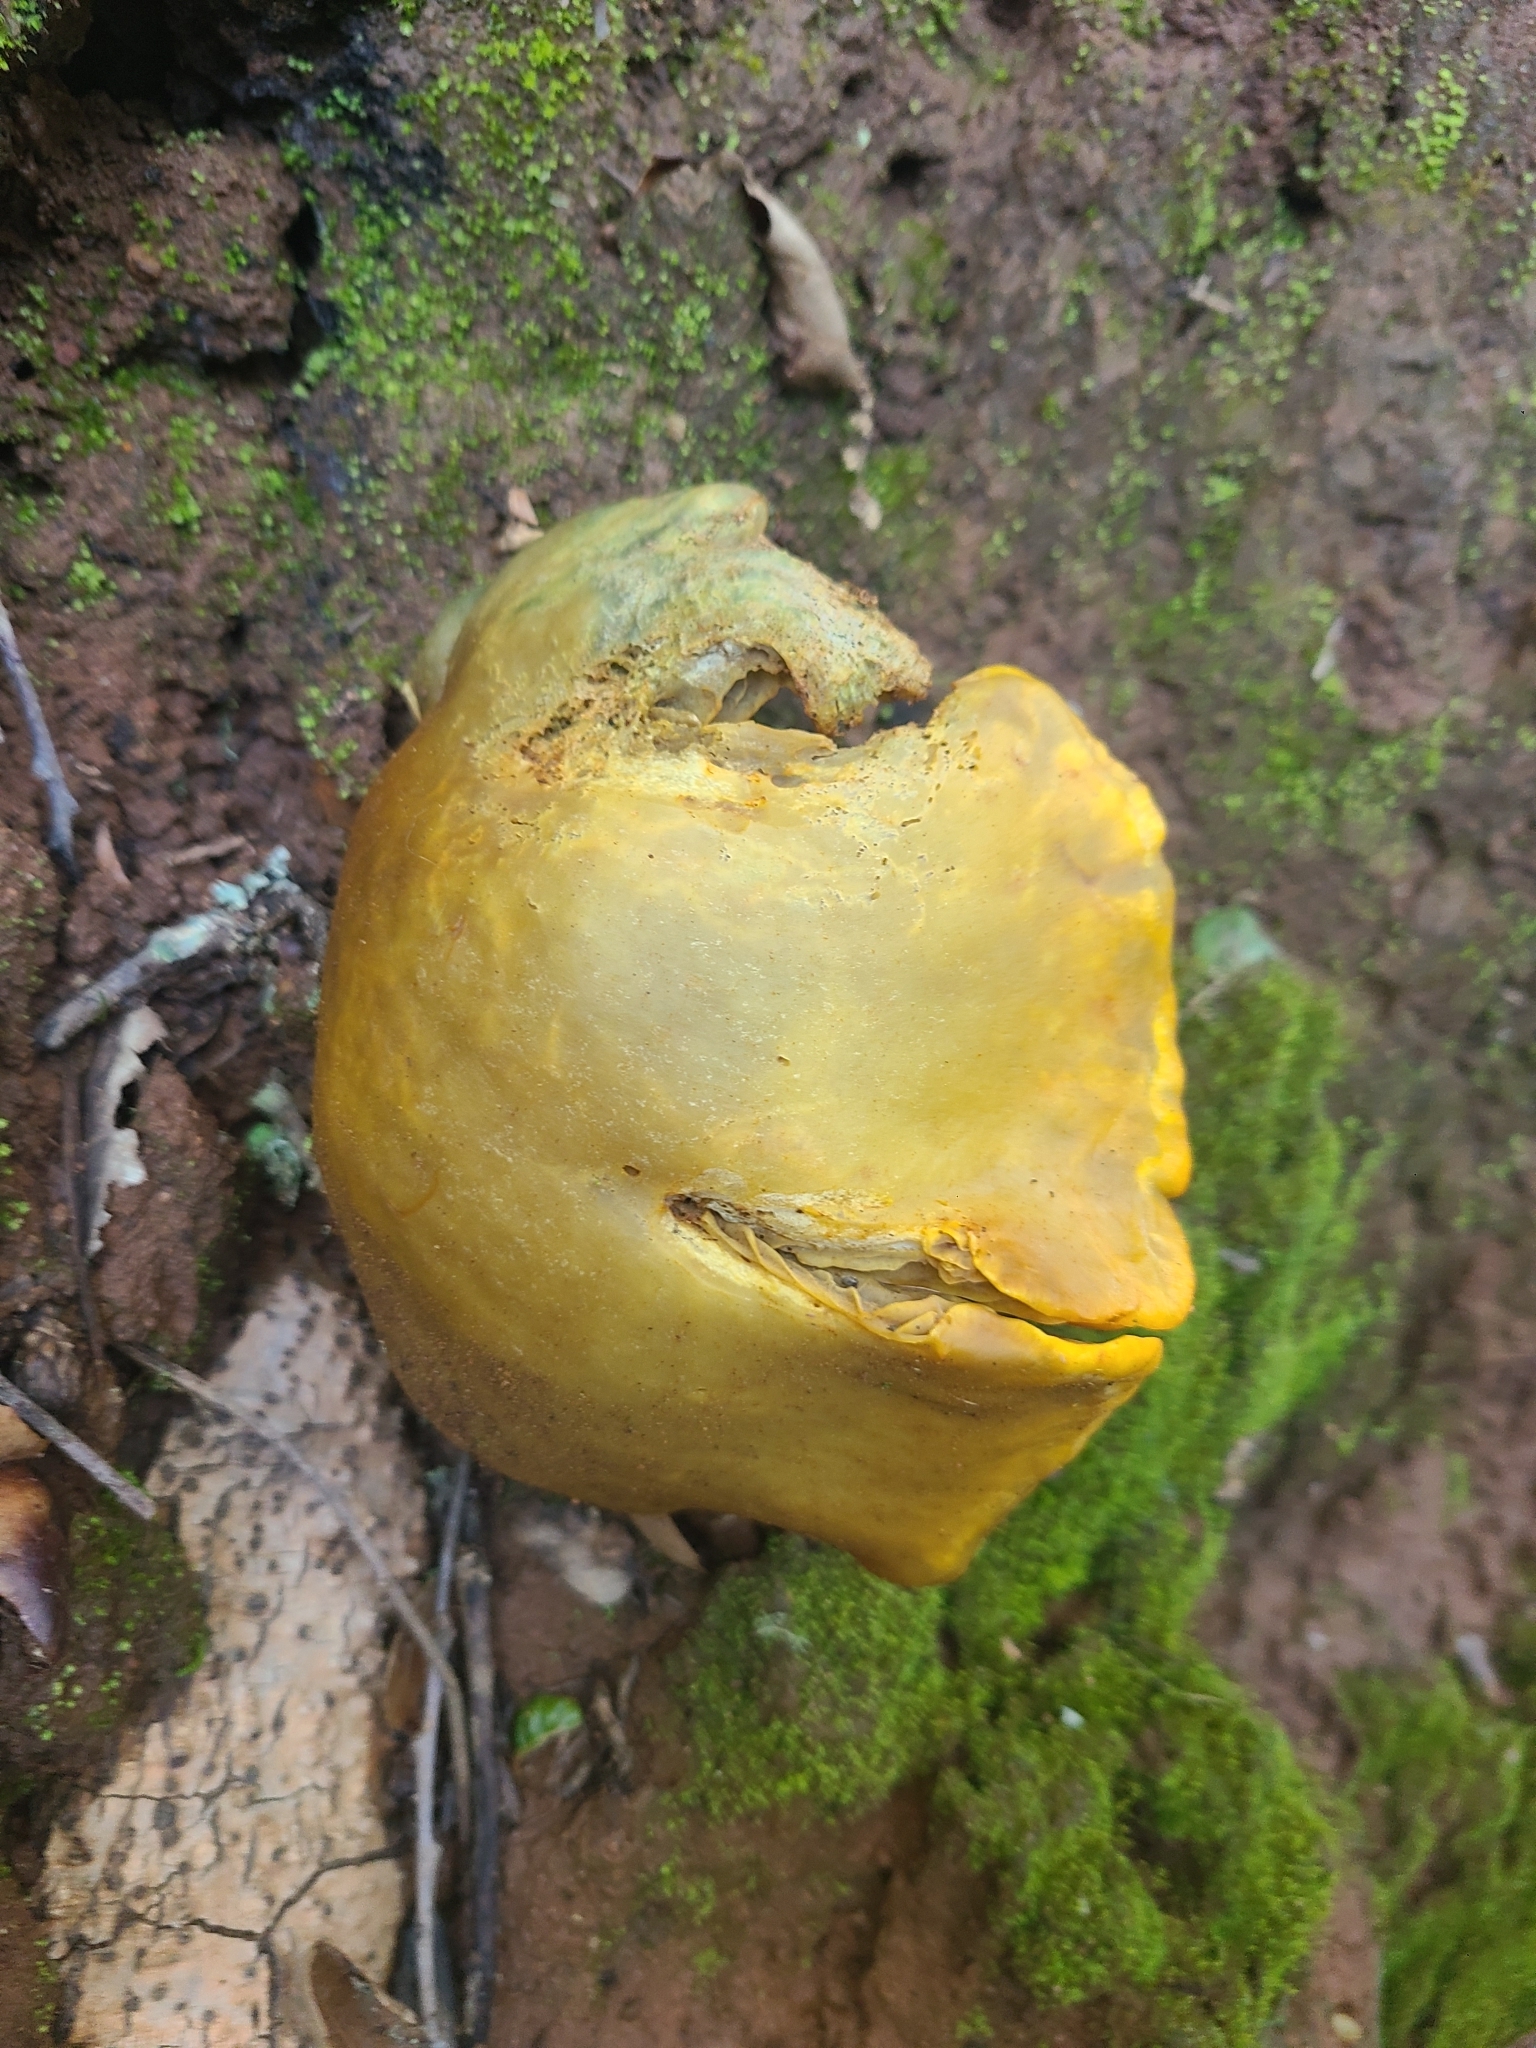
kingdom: Fungi
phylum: Basidiomycota
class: Agaricomycetes
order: Agaricales
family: Omphalotaceae
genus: Omphalotus
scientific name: Omphalotus olivascens
